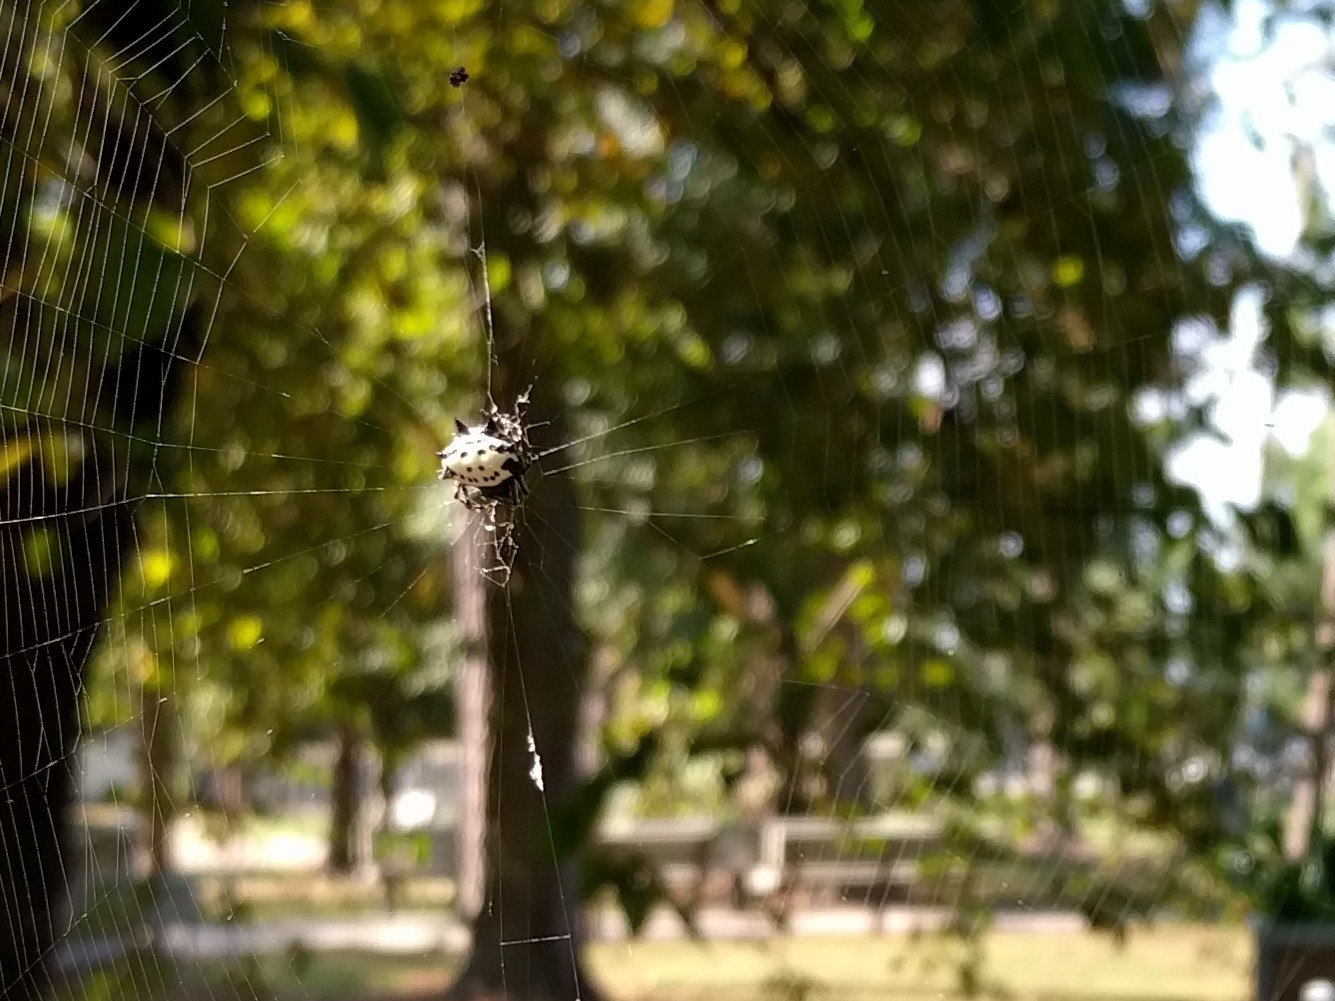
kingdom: Animalia
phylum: Arthropoda
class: Arachnida
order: Araneae
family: Araneidae
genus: Gasteracantha
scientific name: Gasteracantha cancriformis
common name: Orb weavers
